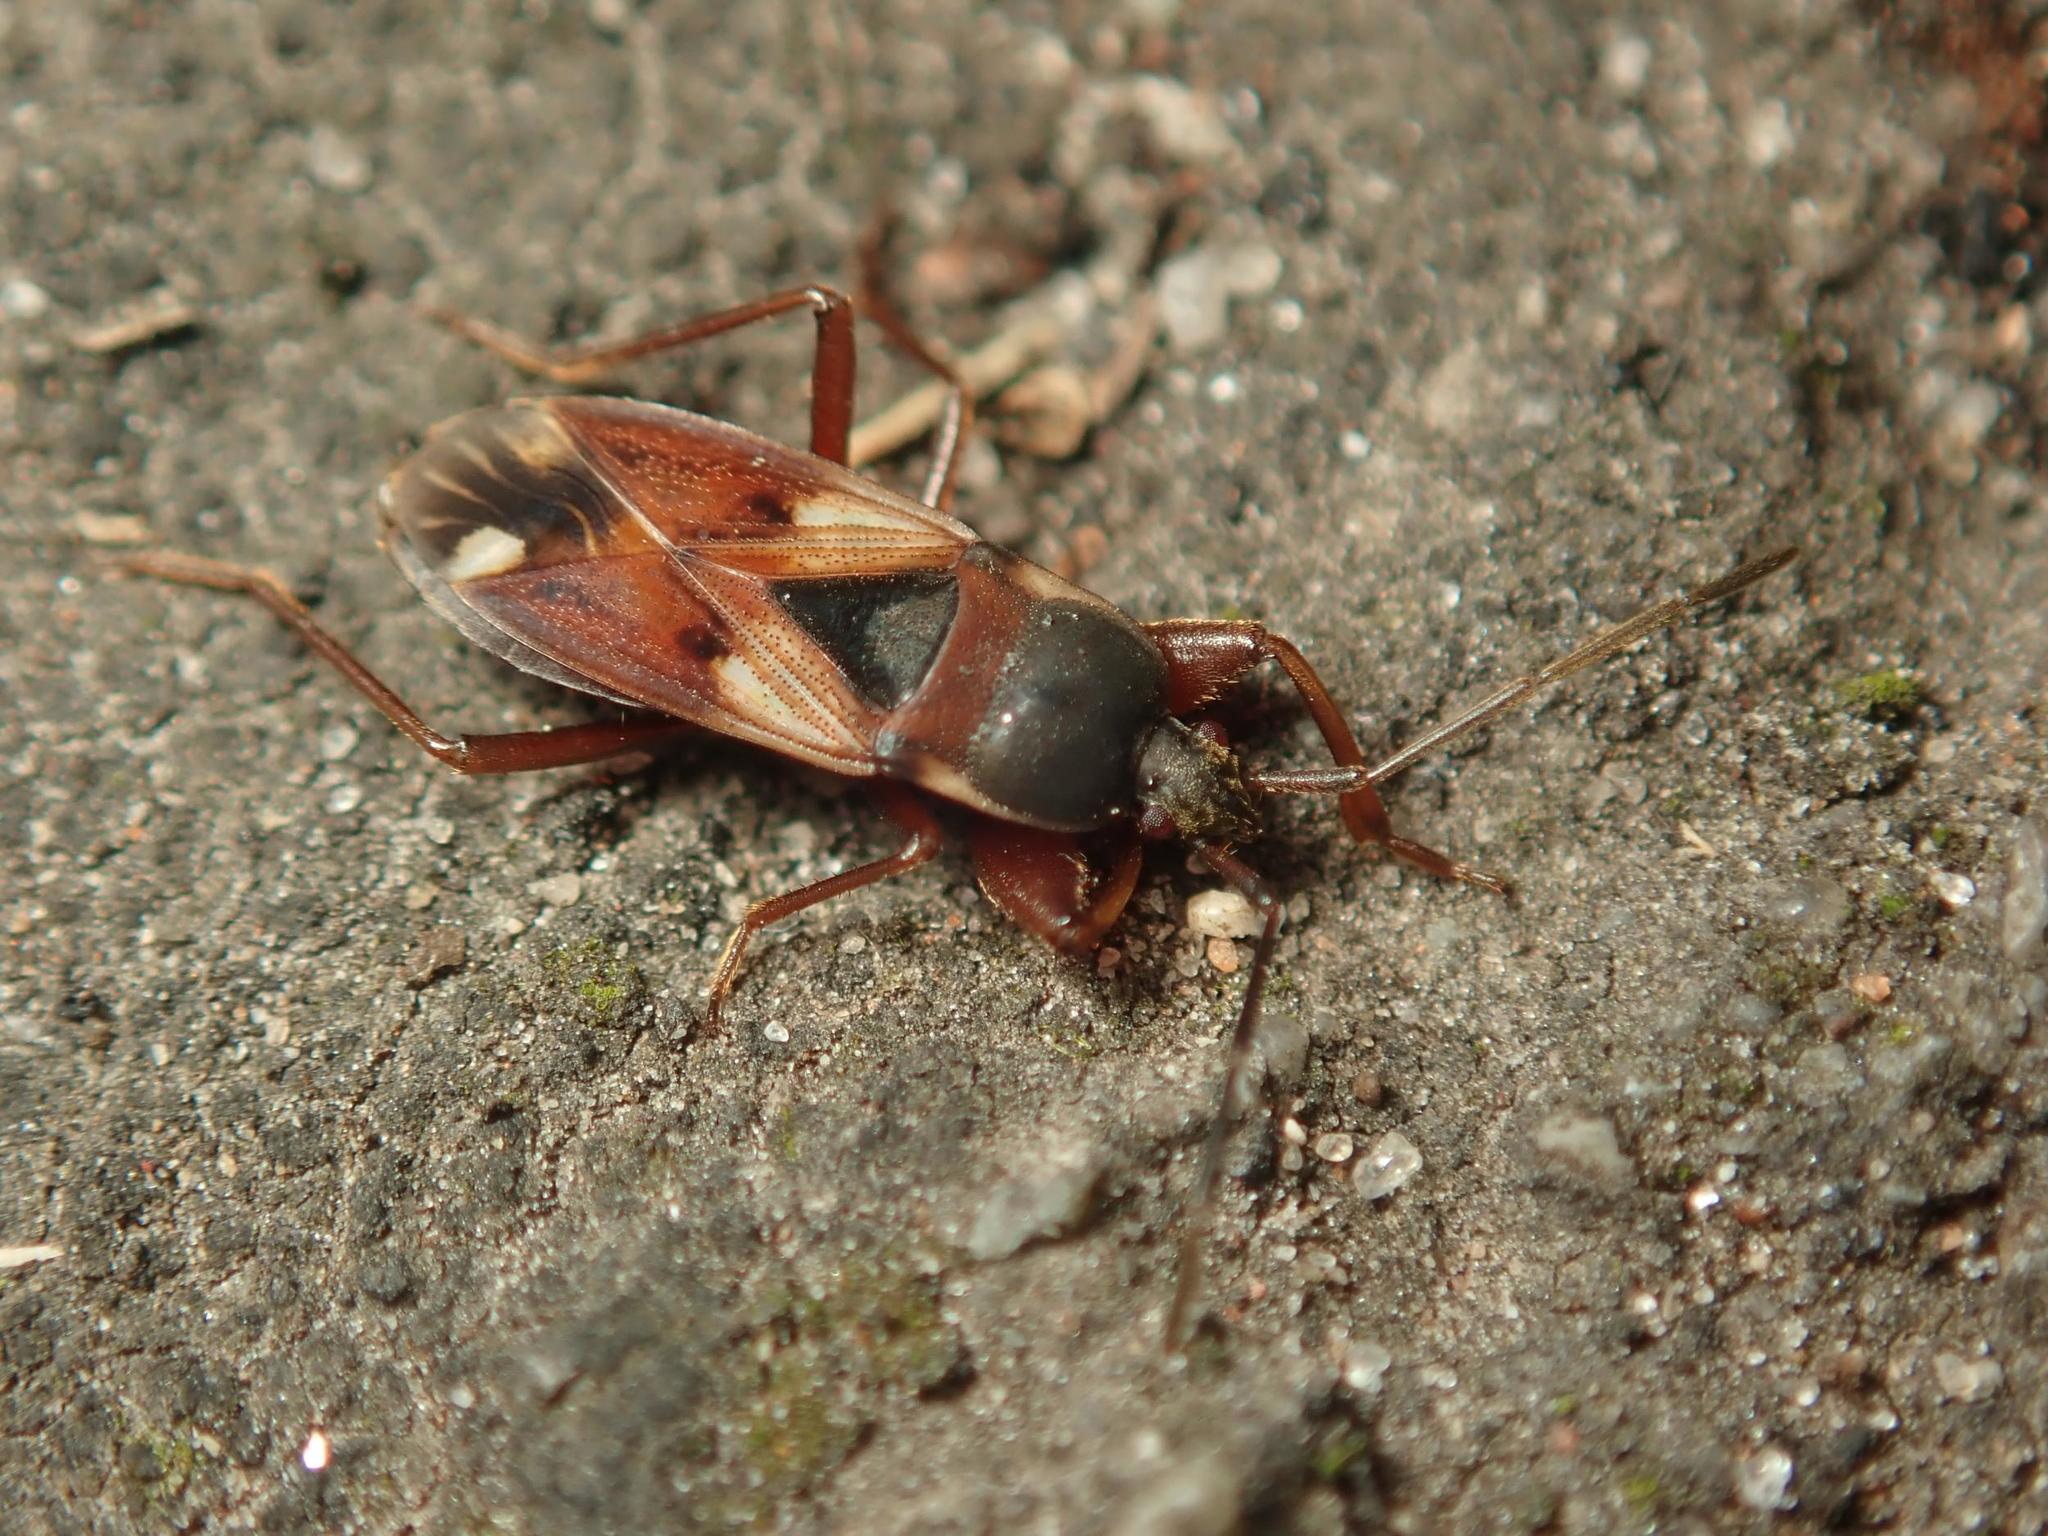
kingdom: Animalia
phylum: Arthropoda
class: Insecta
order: Hemiptera
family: Rhyparochromidae
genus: Eremocoris
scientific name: Eremocoris abietis
